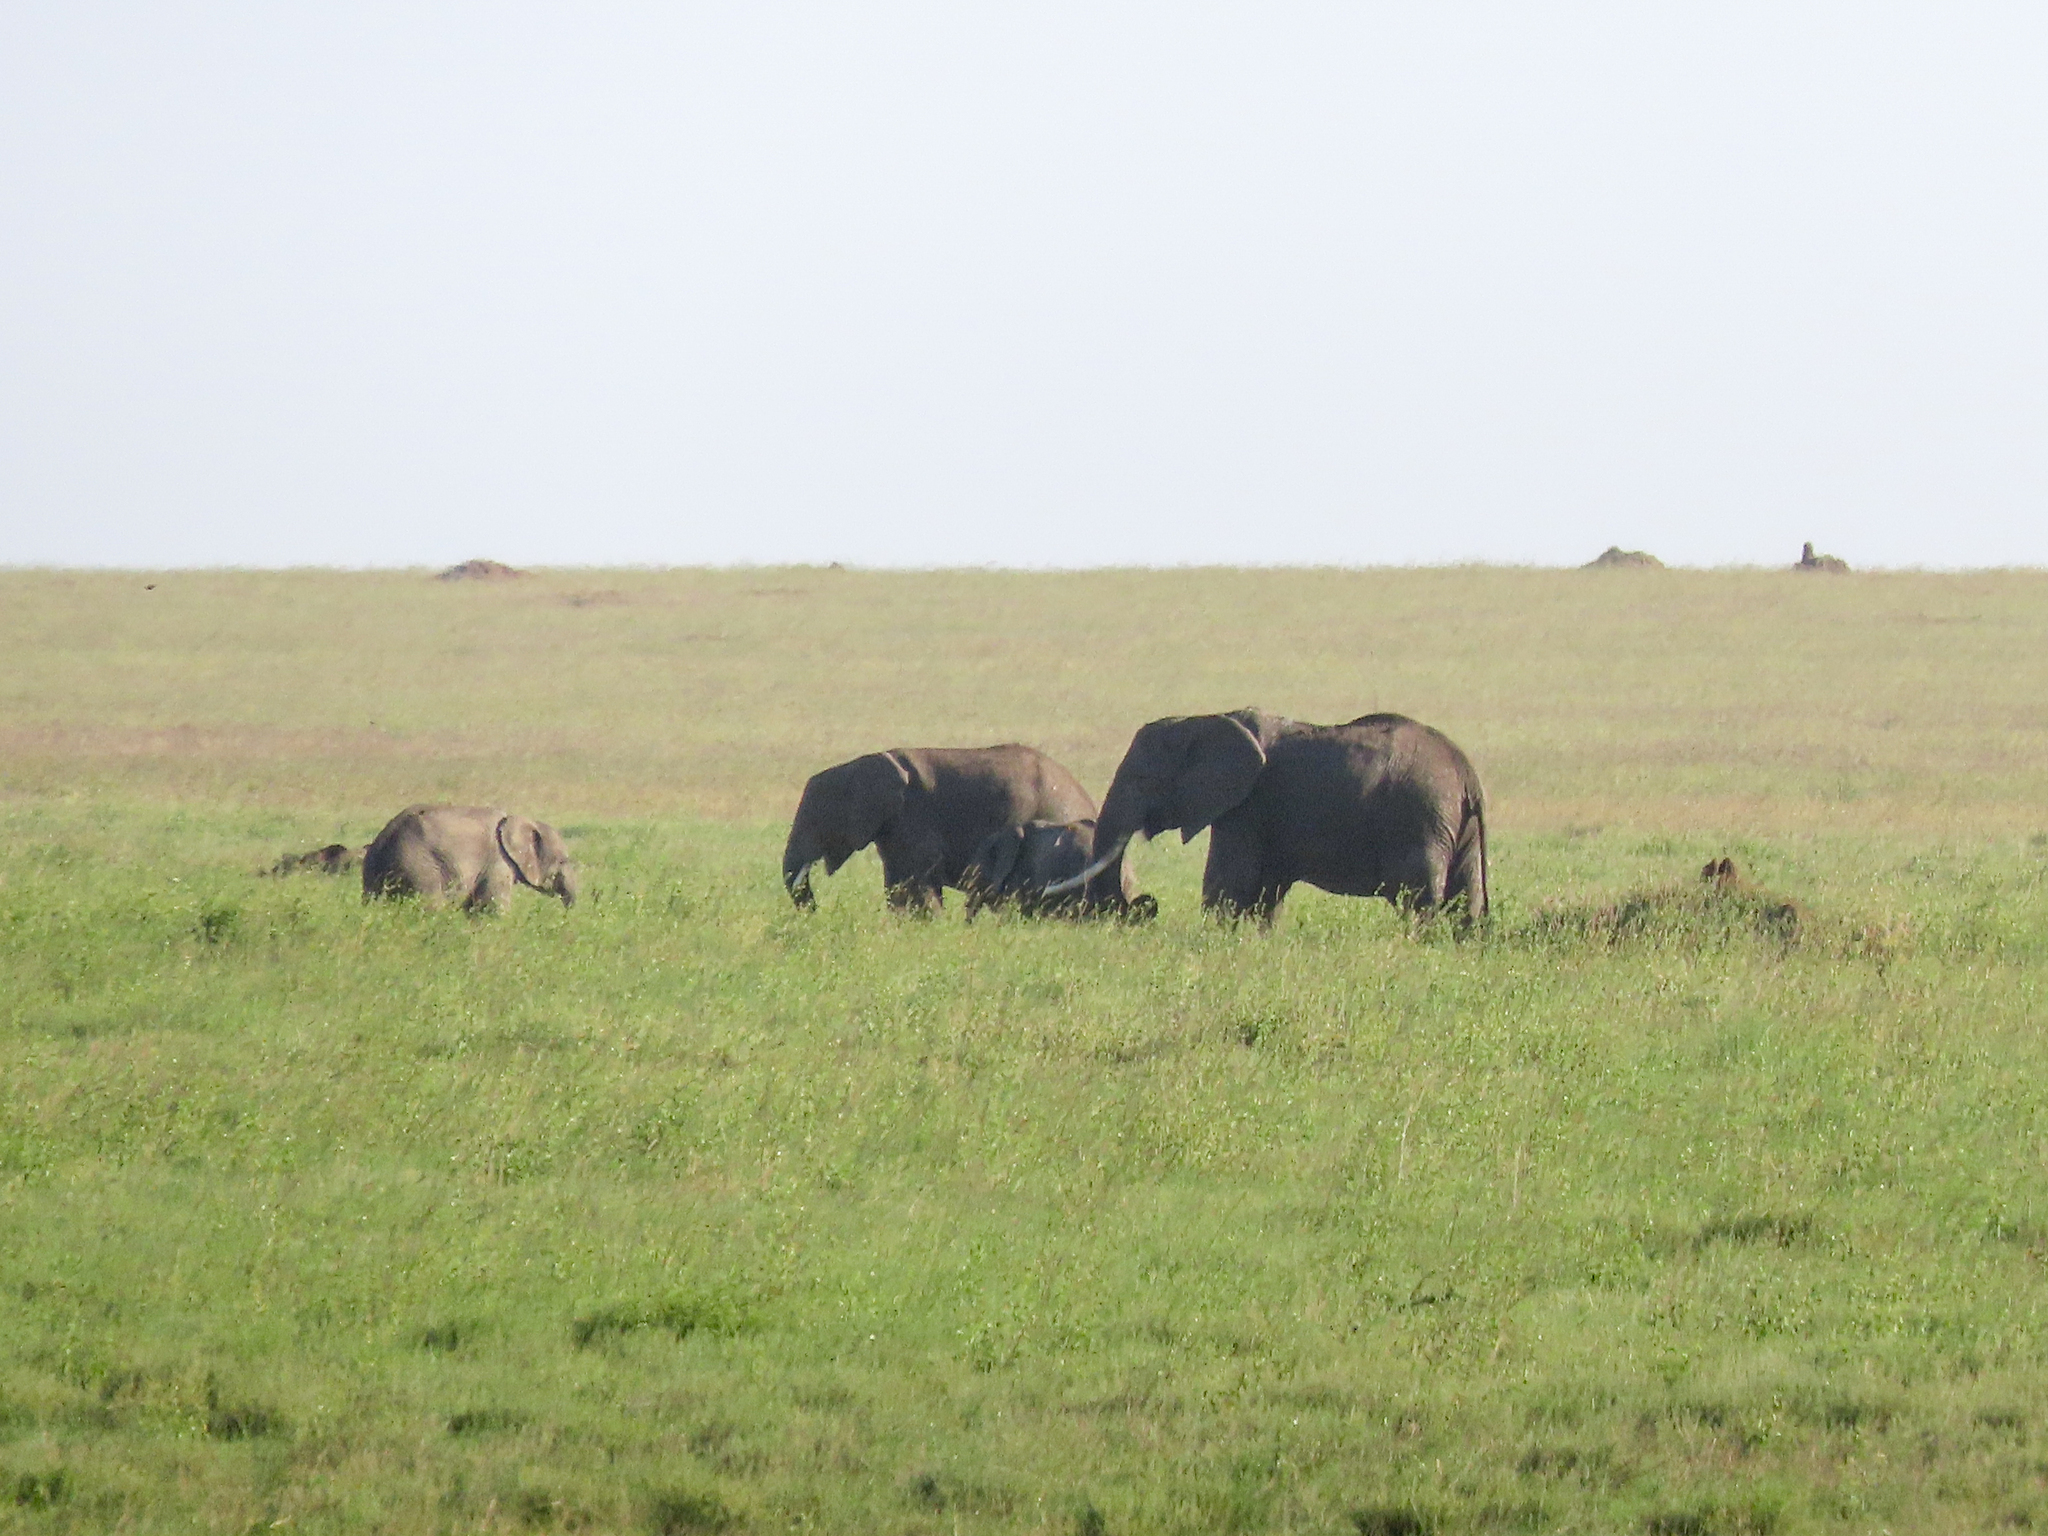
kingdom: Animalia
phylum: Chordata
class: Mammalia
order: Proboscidea
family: Elephantidae
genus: Loxodonta
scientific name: Loxodonta africana
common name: African elephant
